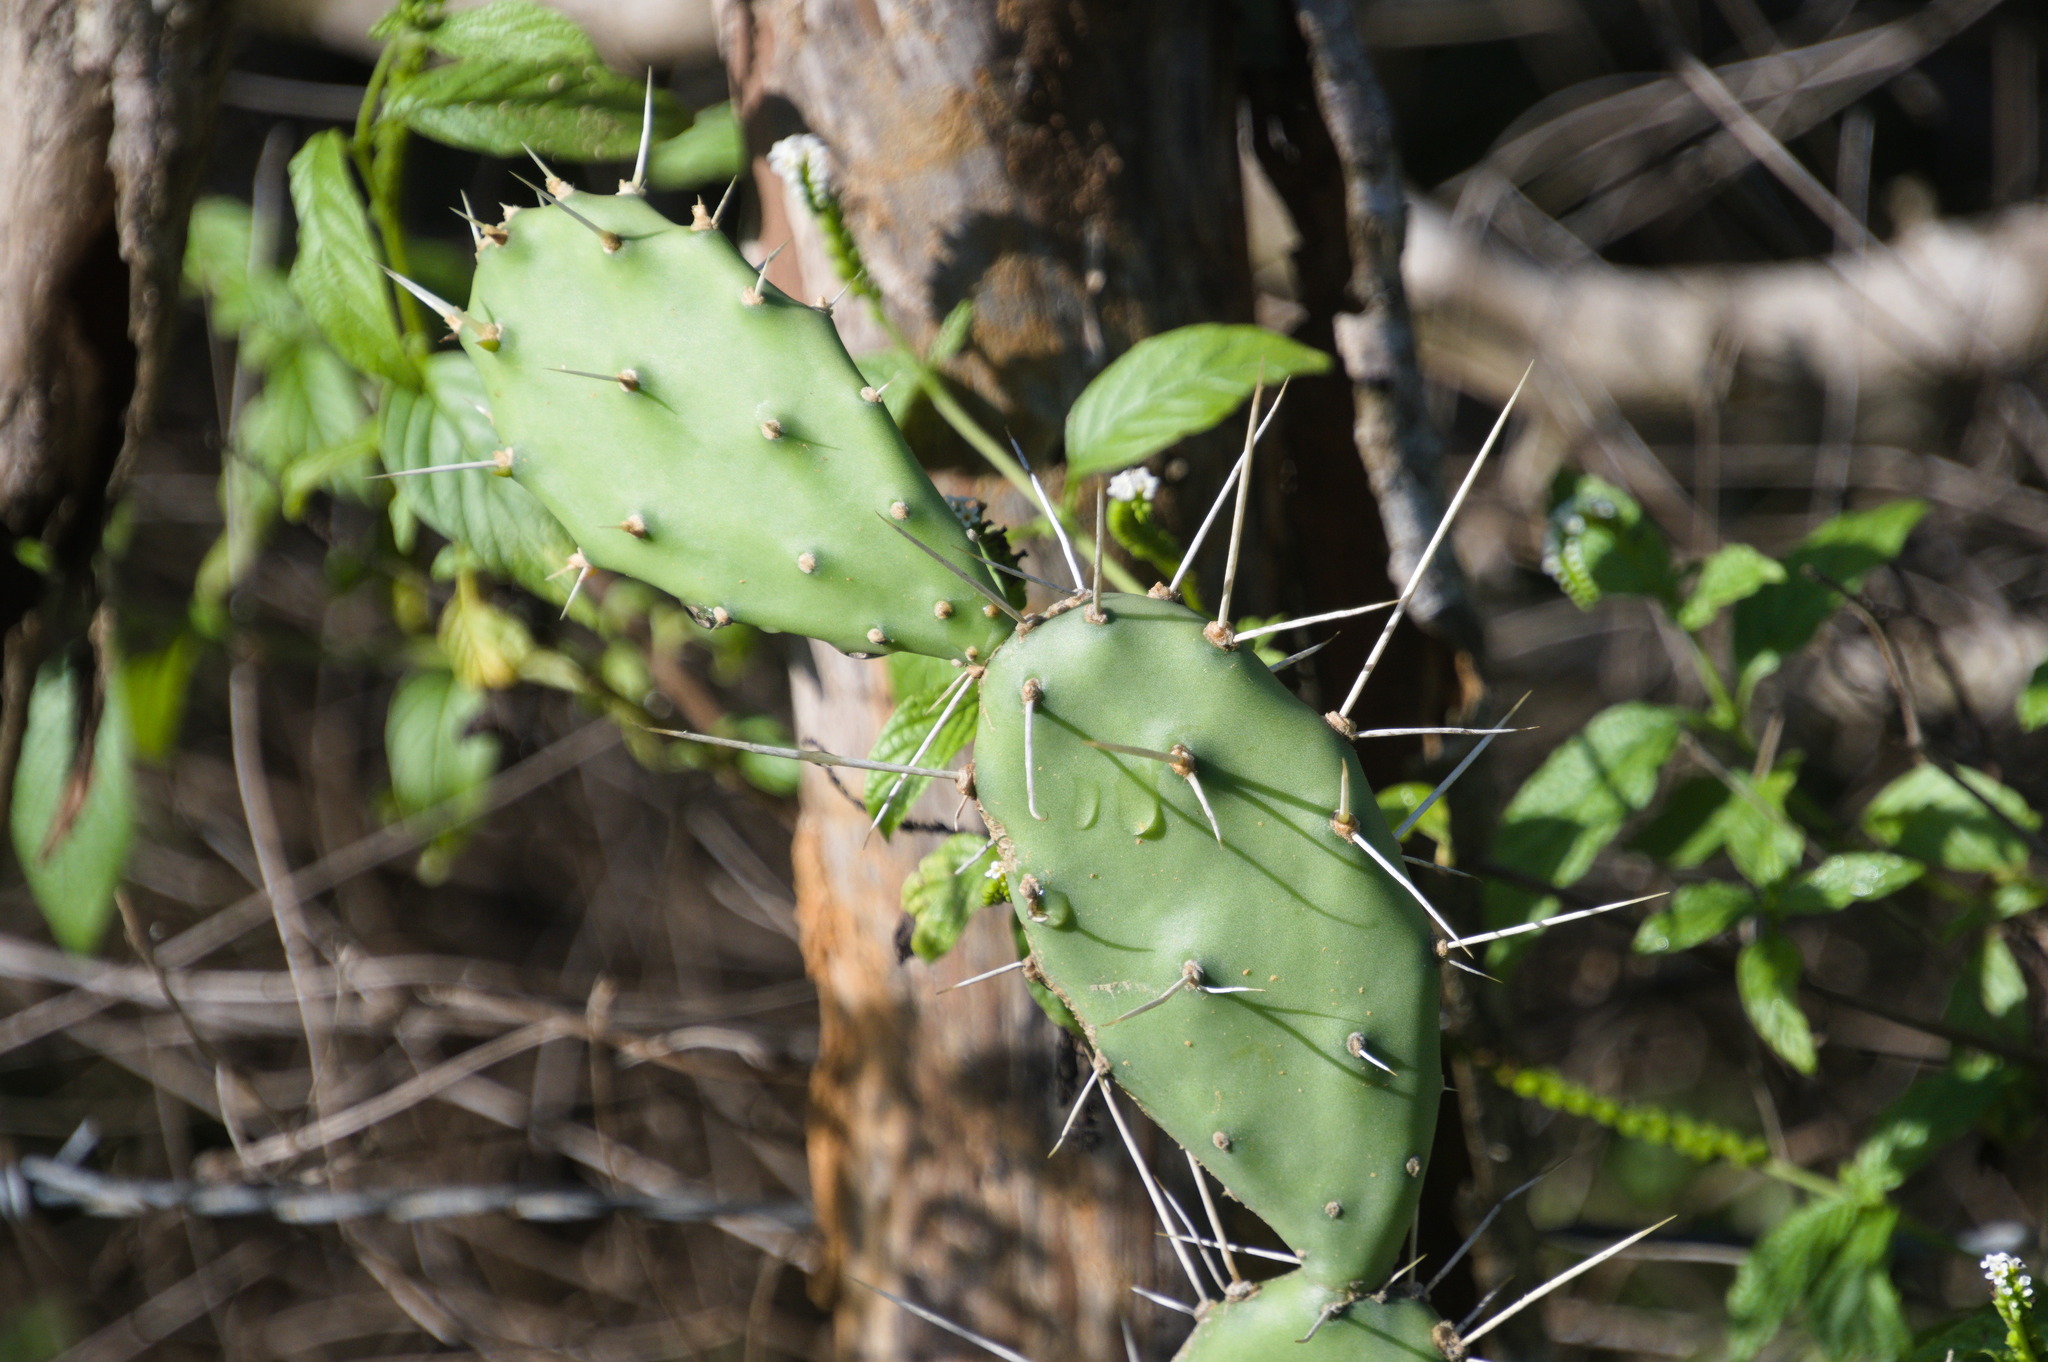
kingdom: Plantae
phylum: Tracheophyta
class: Magnoliopsida
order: Caryophyllales
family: Cactaceae
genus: Opuntia
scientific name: Opuntia caracassana
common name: Common prickly pear
